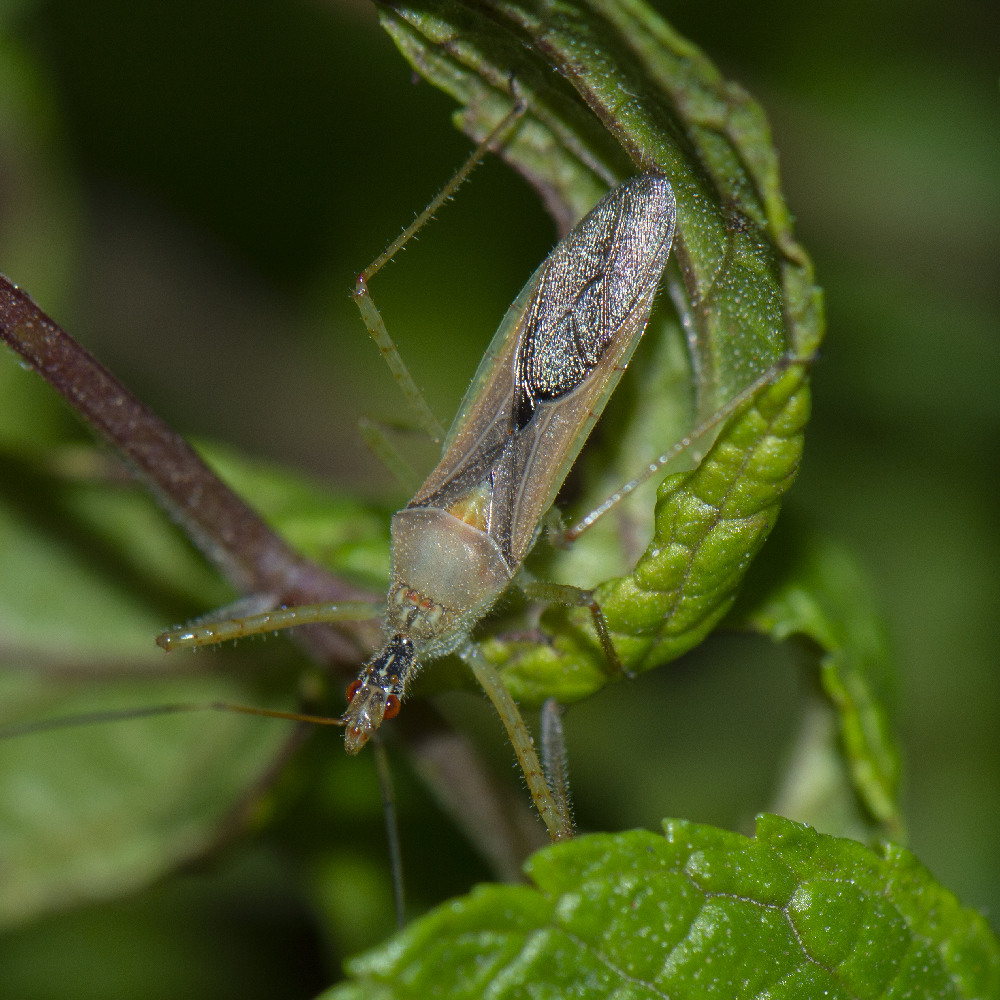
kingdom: Animalia
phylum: Arthropoda
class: Insecta
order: Hemiptera
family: Reduviidae
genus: Zelus
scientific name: Zelus renardii
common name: Assassin bug
